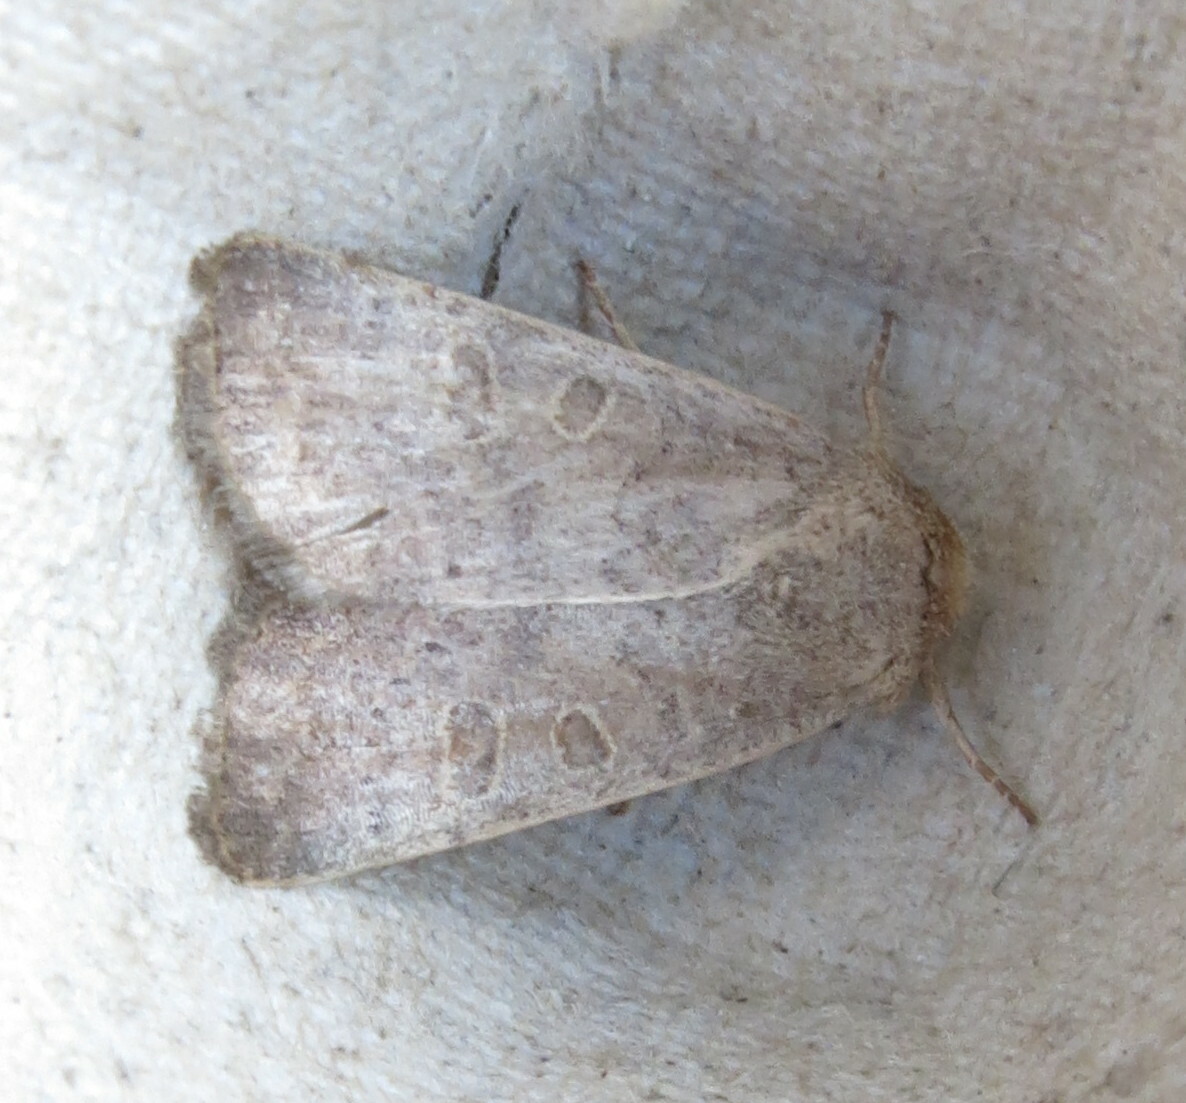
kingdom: Animalia
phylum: Arthropoda
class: Insecta
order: Lepidoptera
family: Noctuidae
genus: Hoplodrina
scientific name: Hoplodrina ambigua
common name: Vine's rustic
